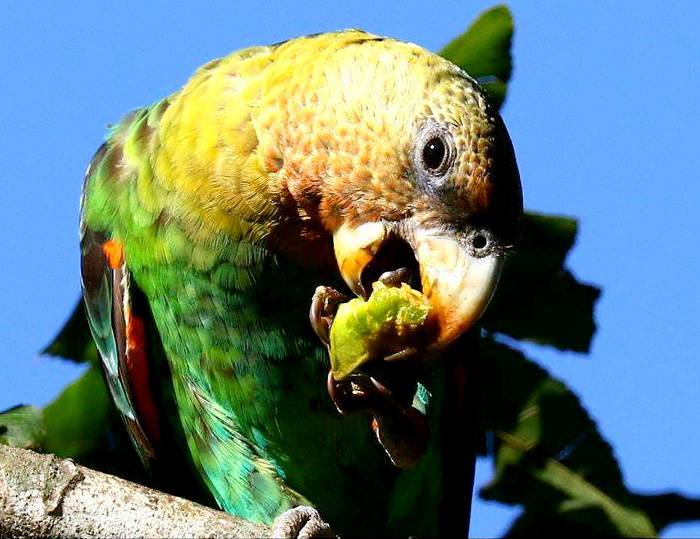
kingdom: Animalia
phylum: Chordata
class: Aves
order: Psittaciformes
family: Psittacidae
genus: Poicephalus
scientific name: Poicephalus robustus
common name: Cape parrot
